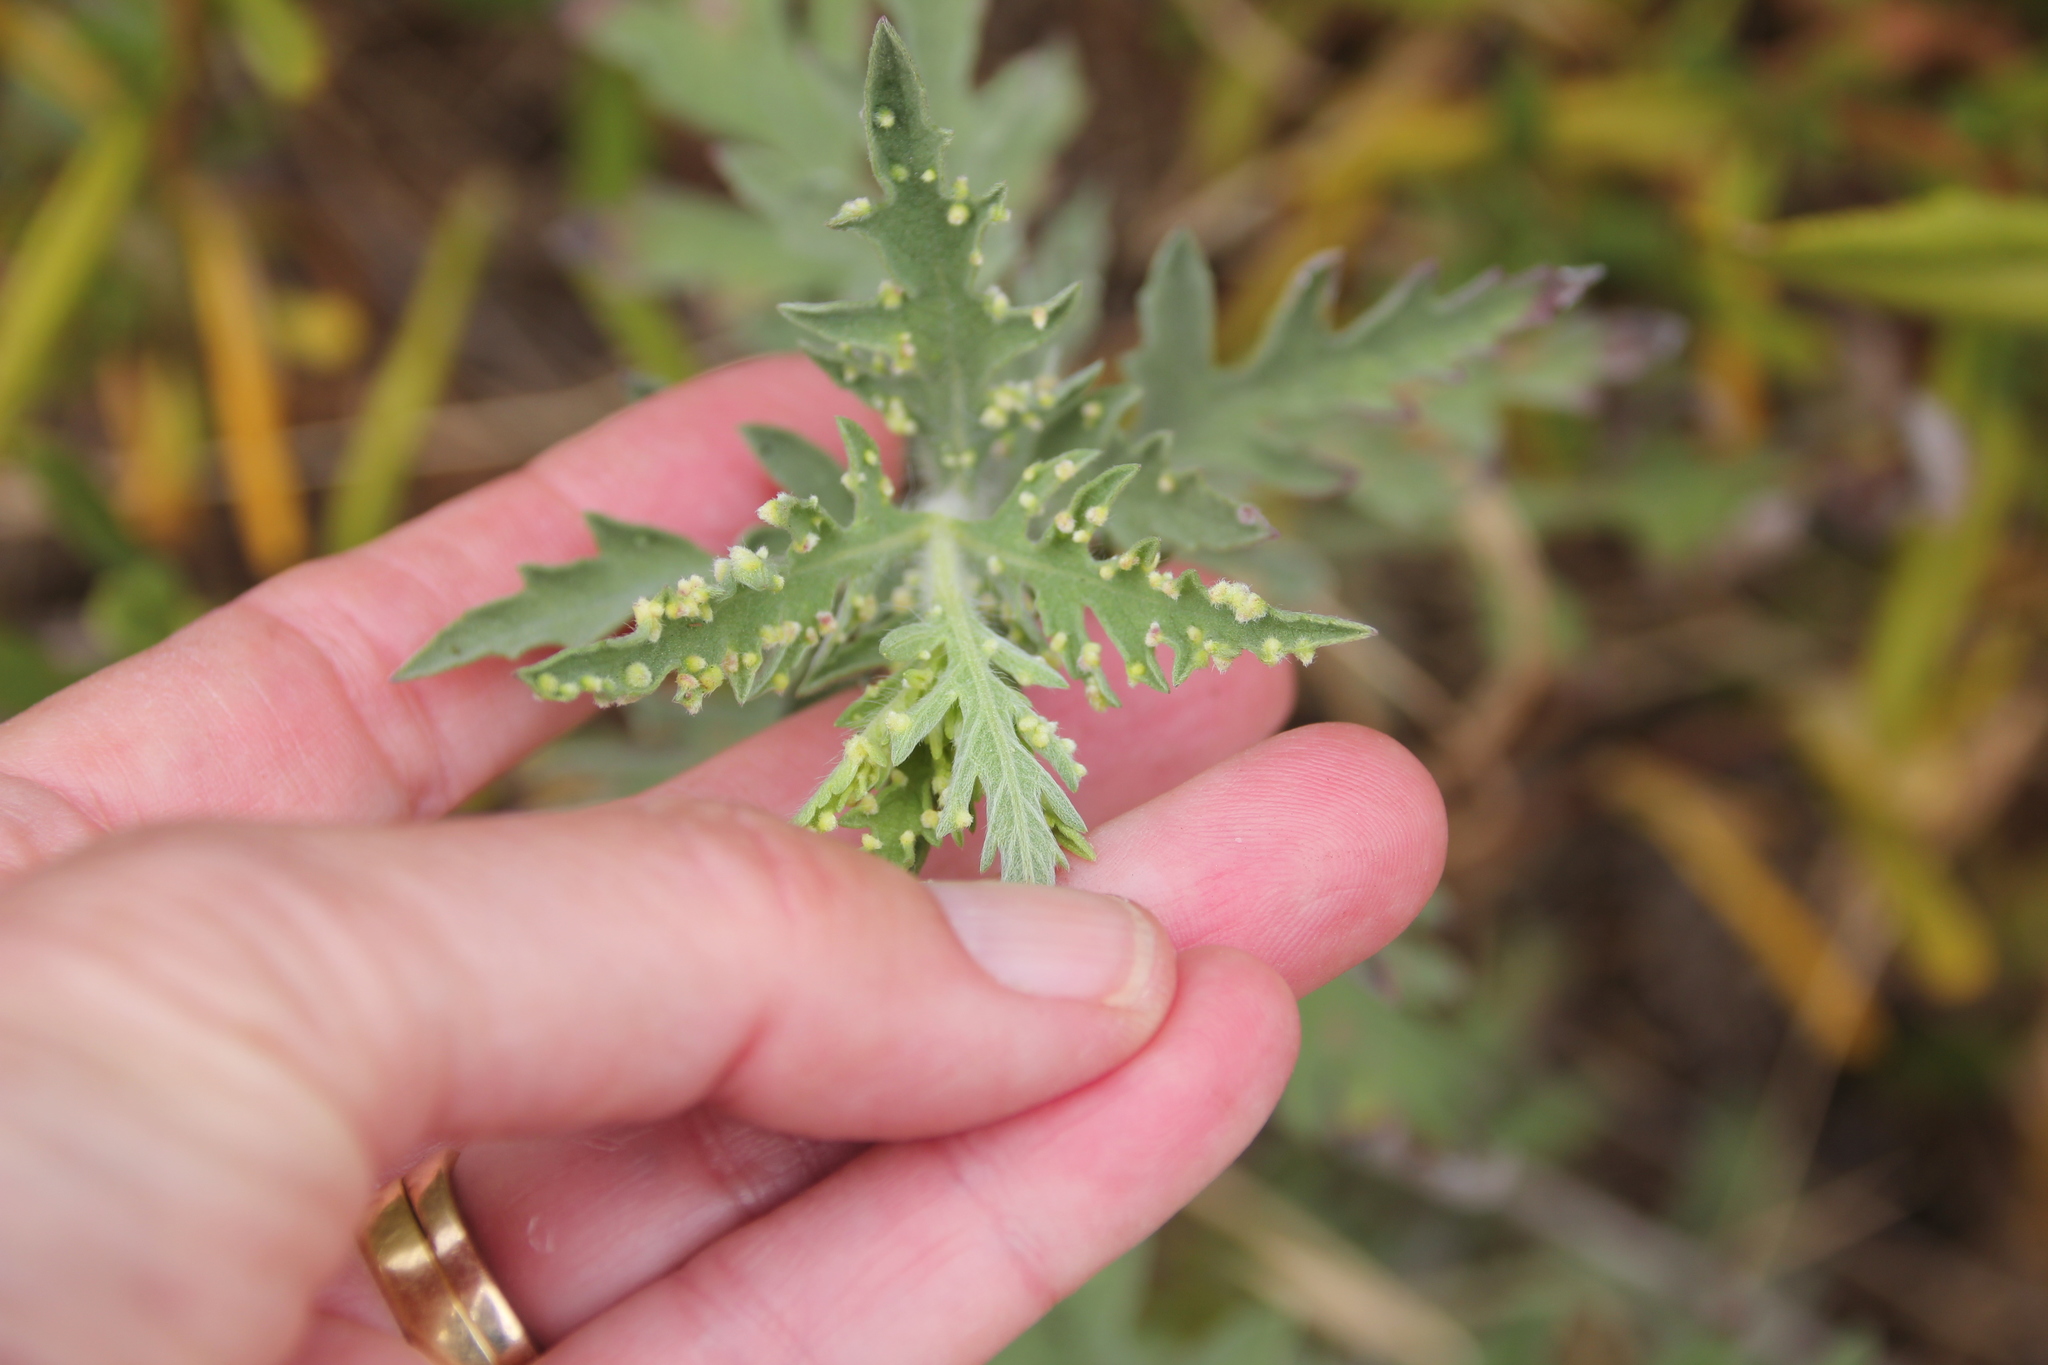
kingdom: Animalia
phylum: Arthropoda
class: Arachnida
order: Trombidiformes
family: Eriophyidae
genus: Aceria
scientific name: Aceria
